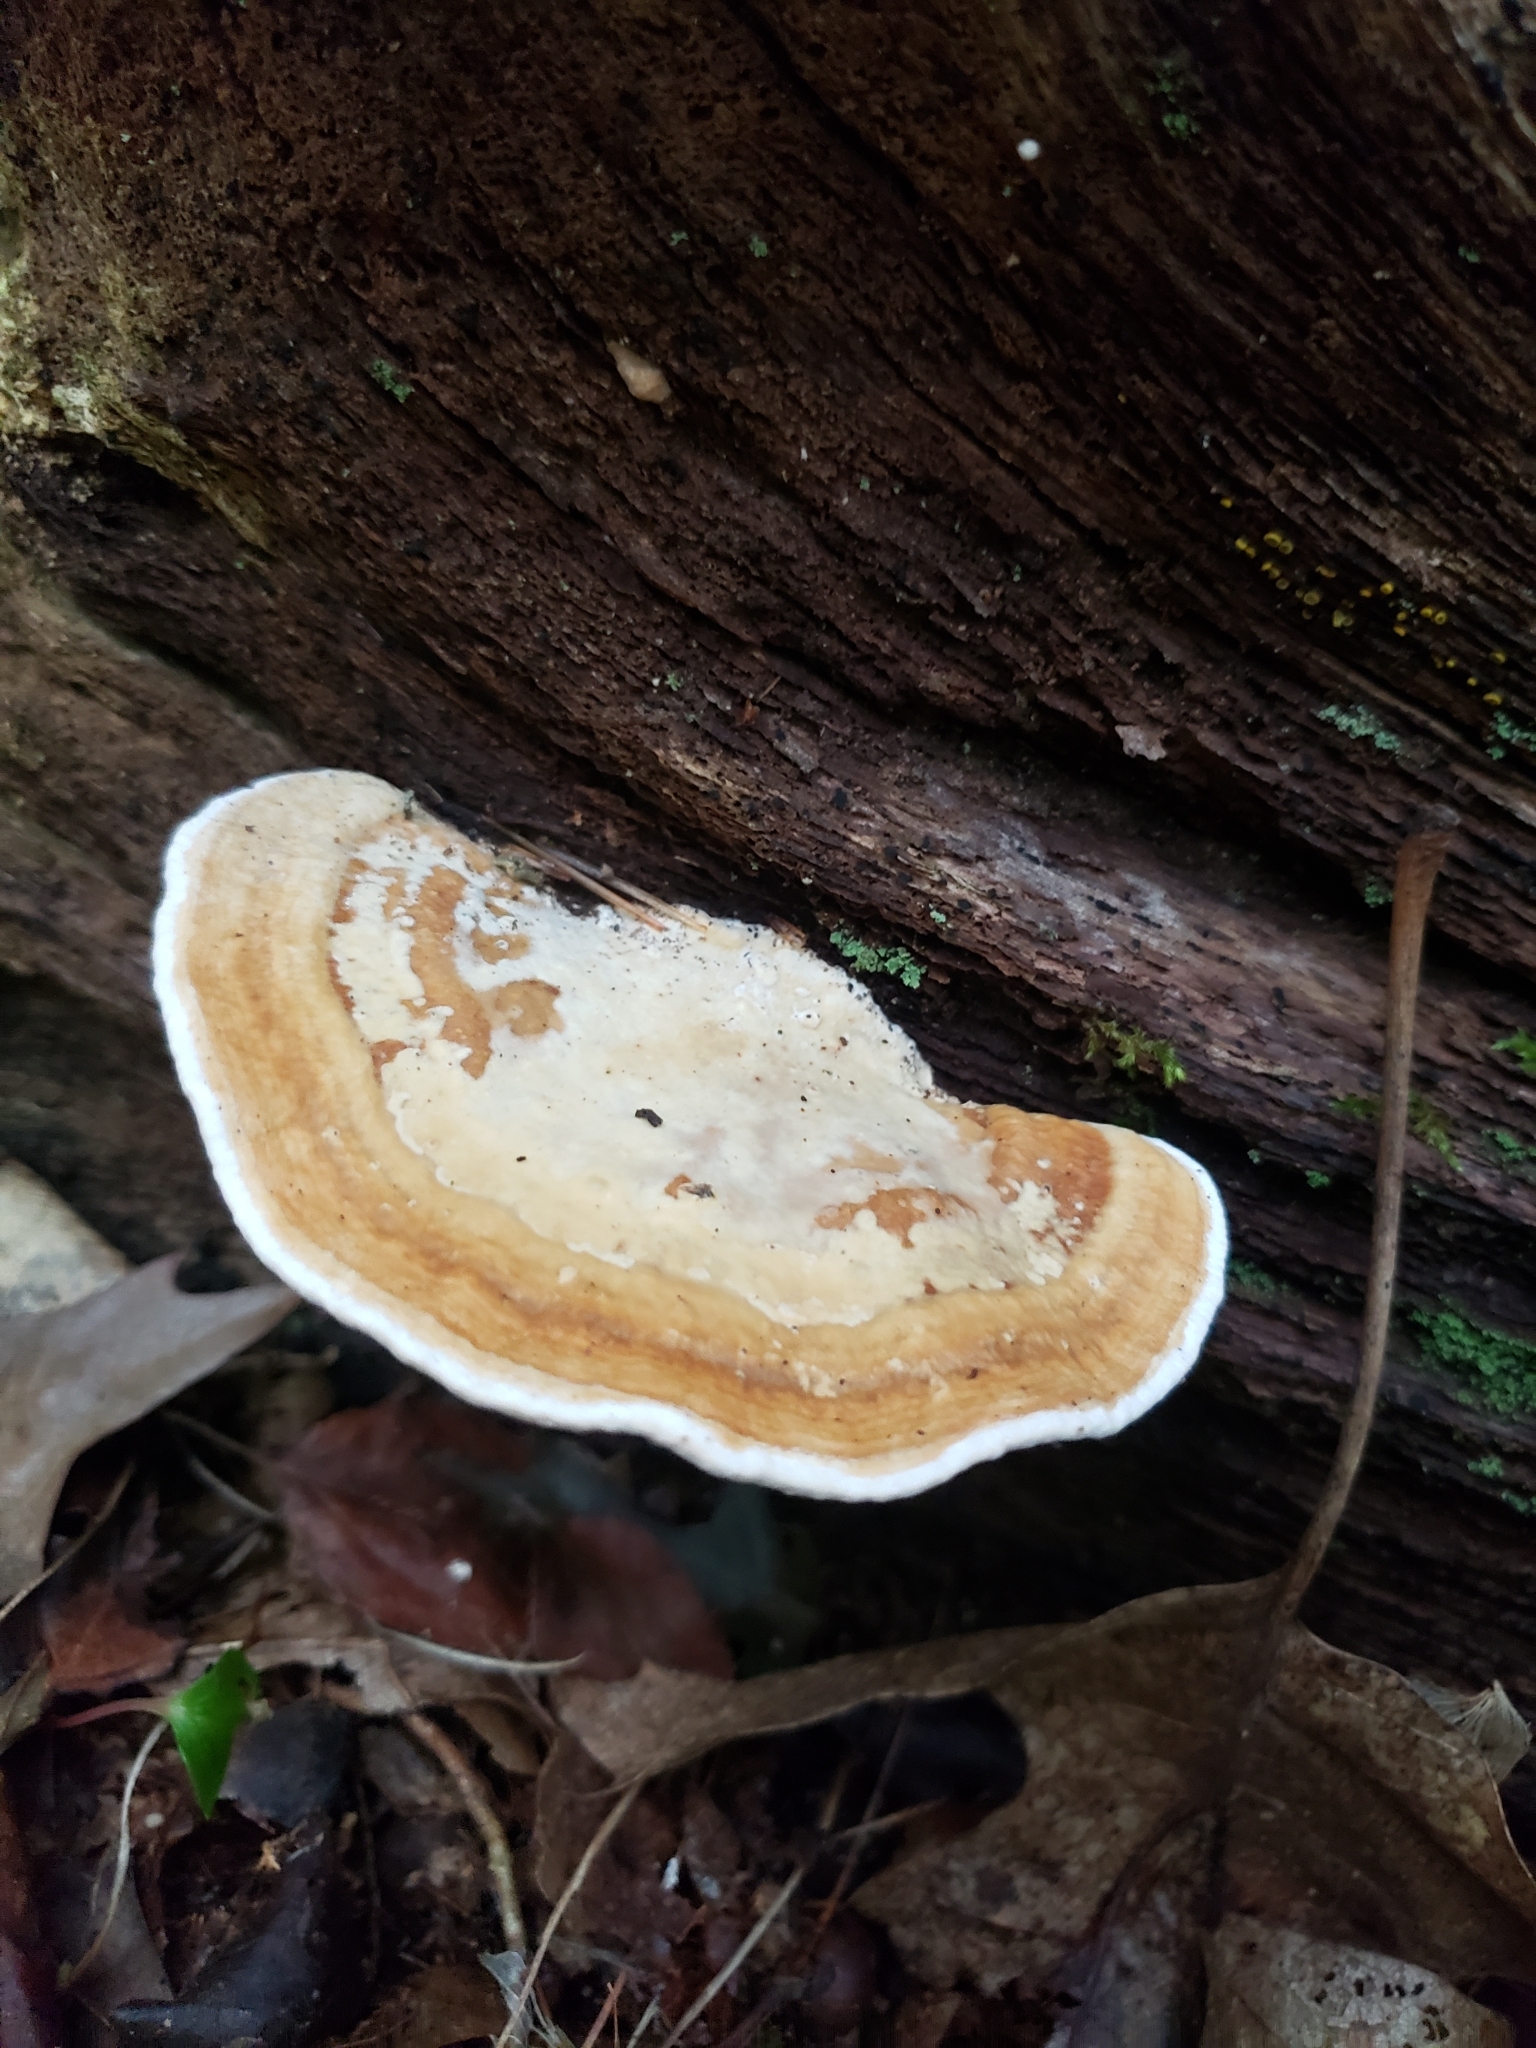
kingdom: Fungi
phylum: Basidiomycota
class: Agaricomycetes
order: Polyporales
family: Fomitopsidaceae
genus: Fomitopsis
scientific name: Fomitopsis
